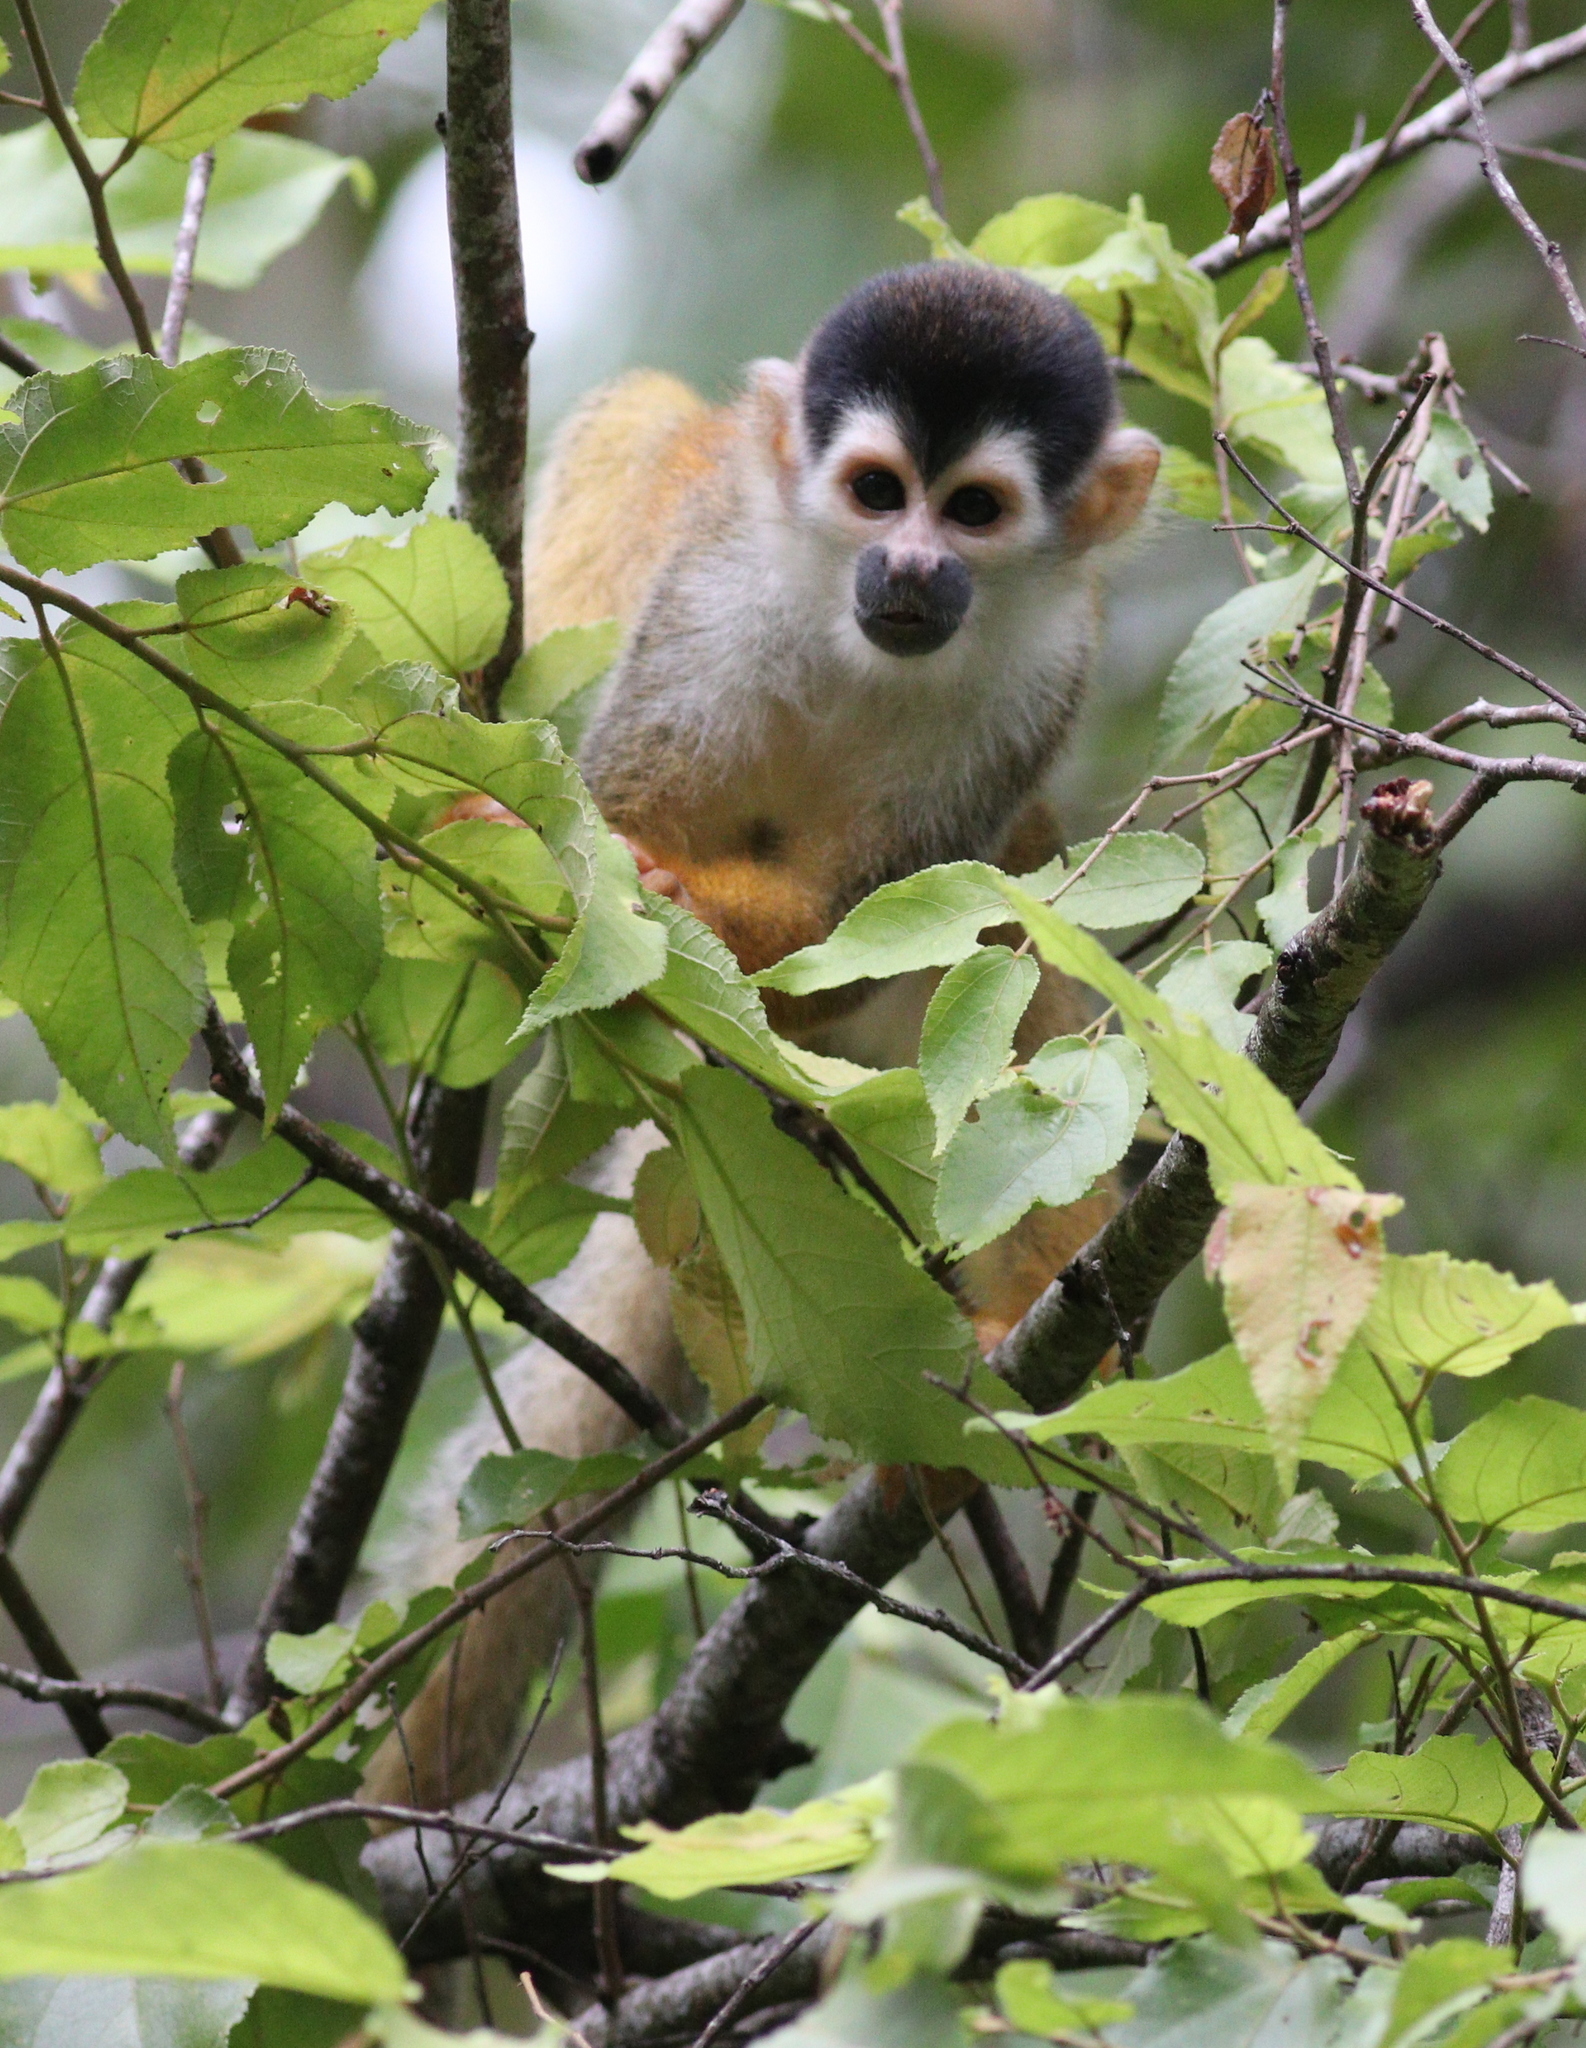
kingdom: Animalia
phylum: Chordata
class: Mammalia
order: Primates
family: Cebidae
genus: Saimiri
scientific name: Saimiri oerstedii
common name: Central american squirrel monkey
